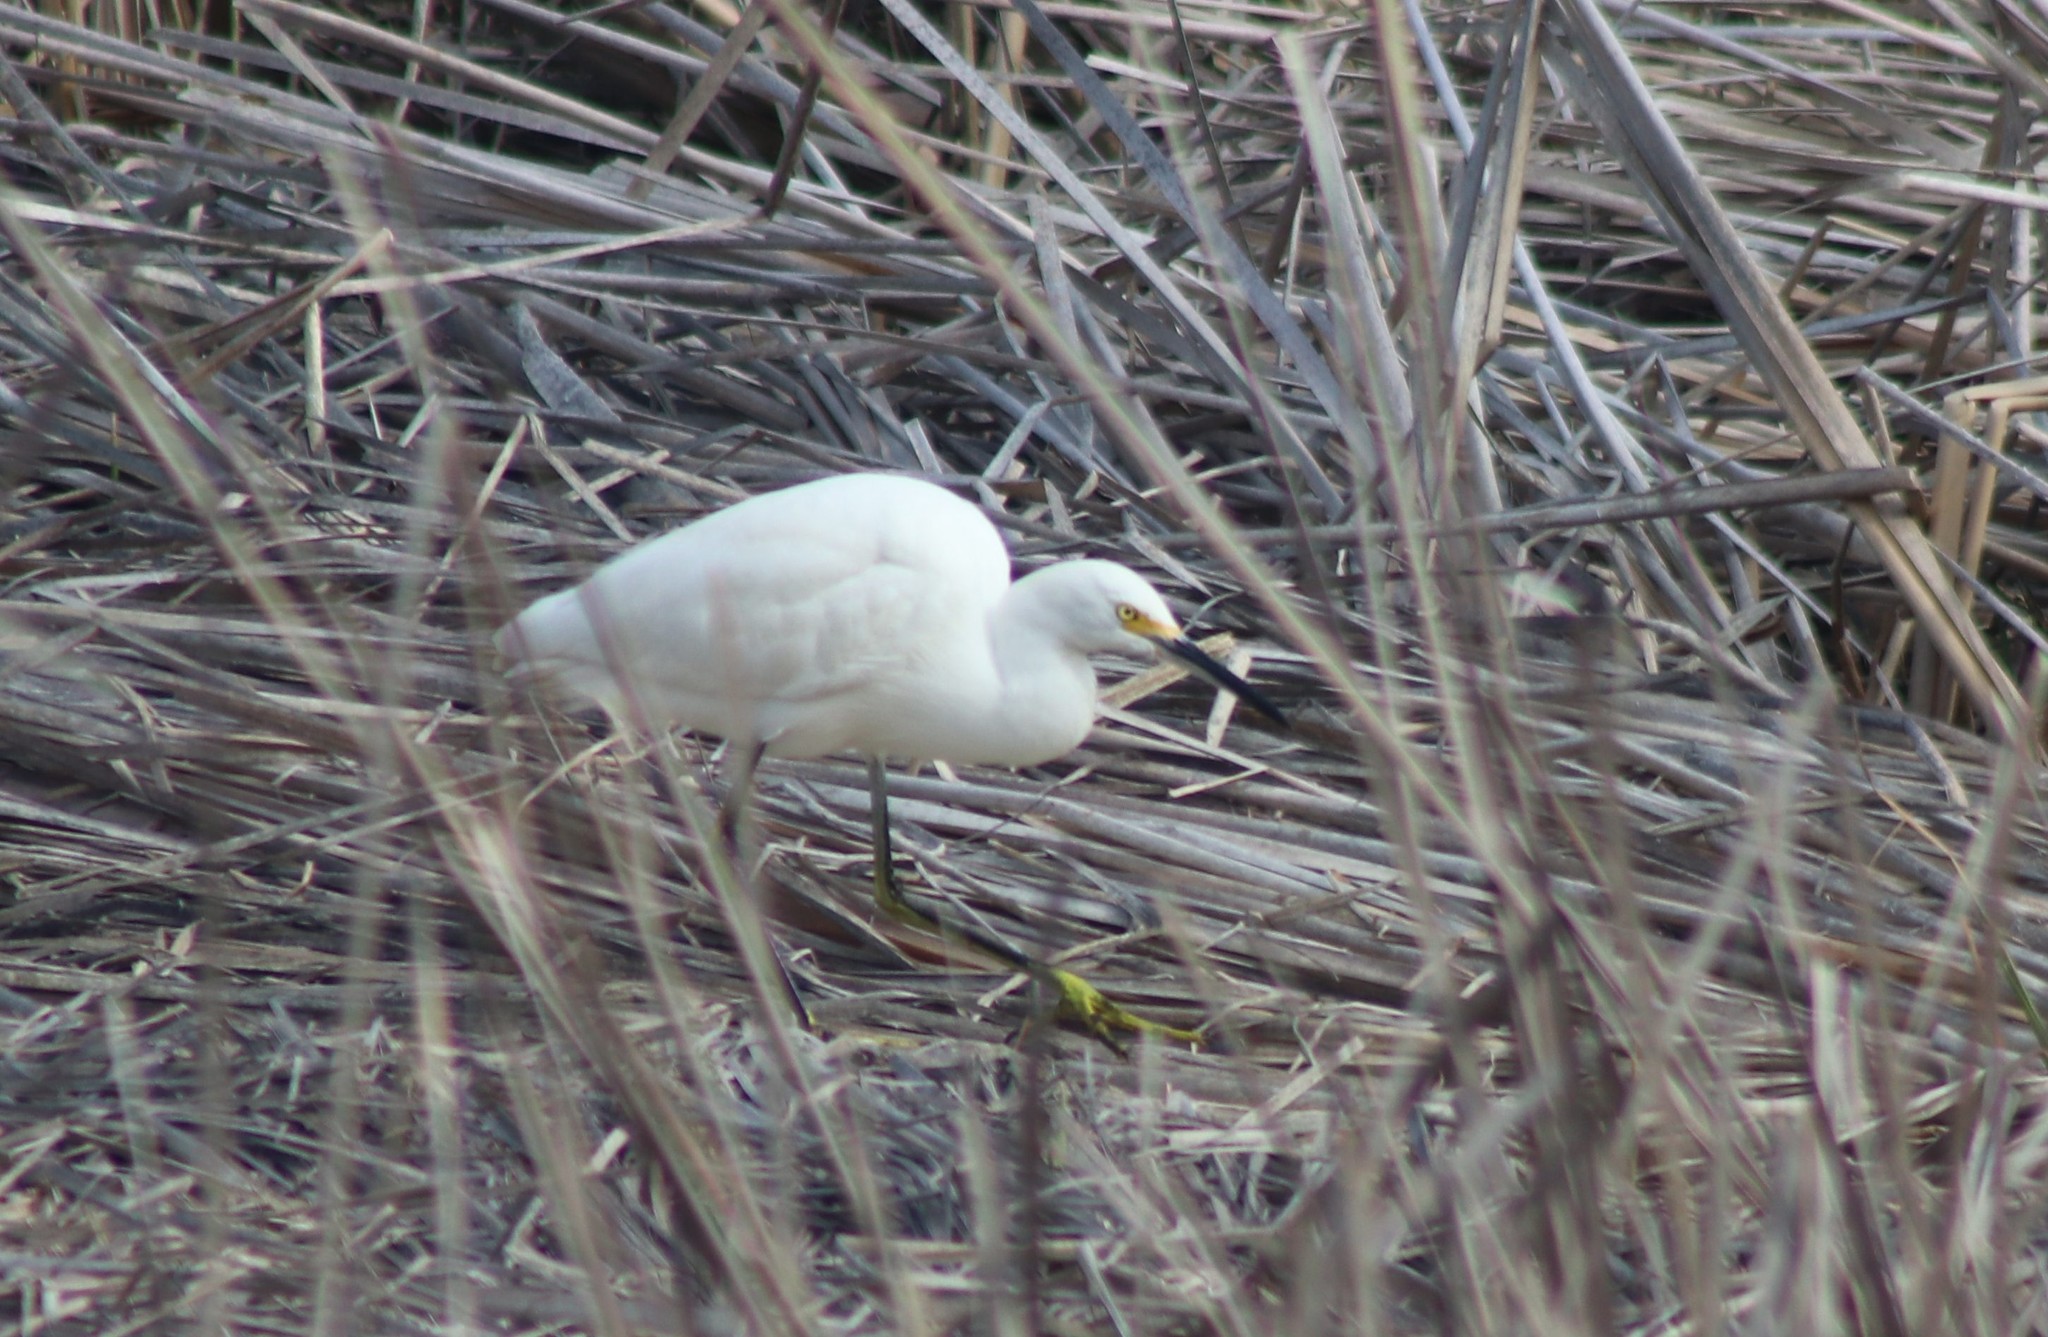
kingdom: Animalia
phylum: Chordata
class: Aves
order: Pelecaniformes
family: Ardeidae
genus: Egretta
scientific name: Egretta thula
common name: Snowy egret
